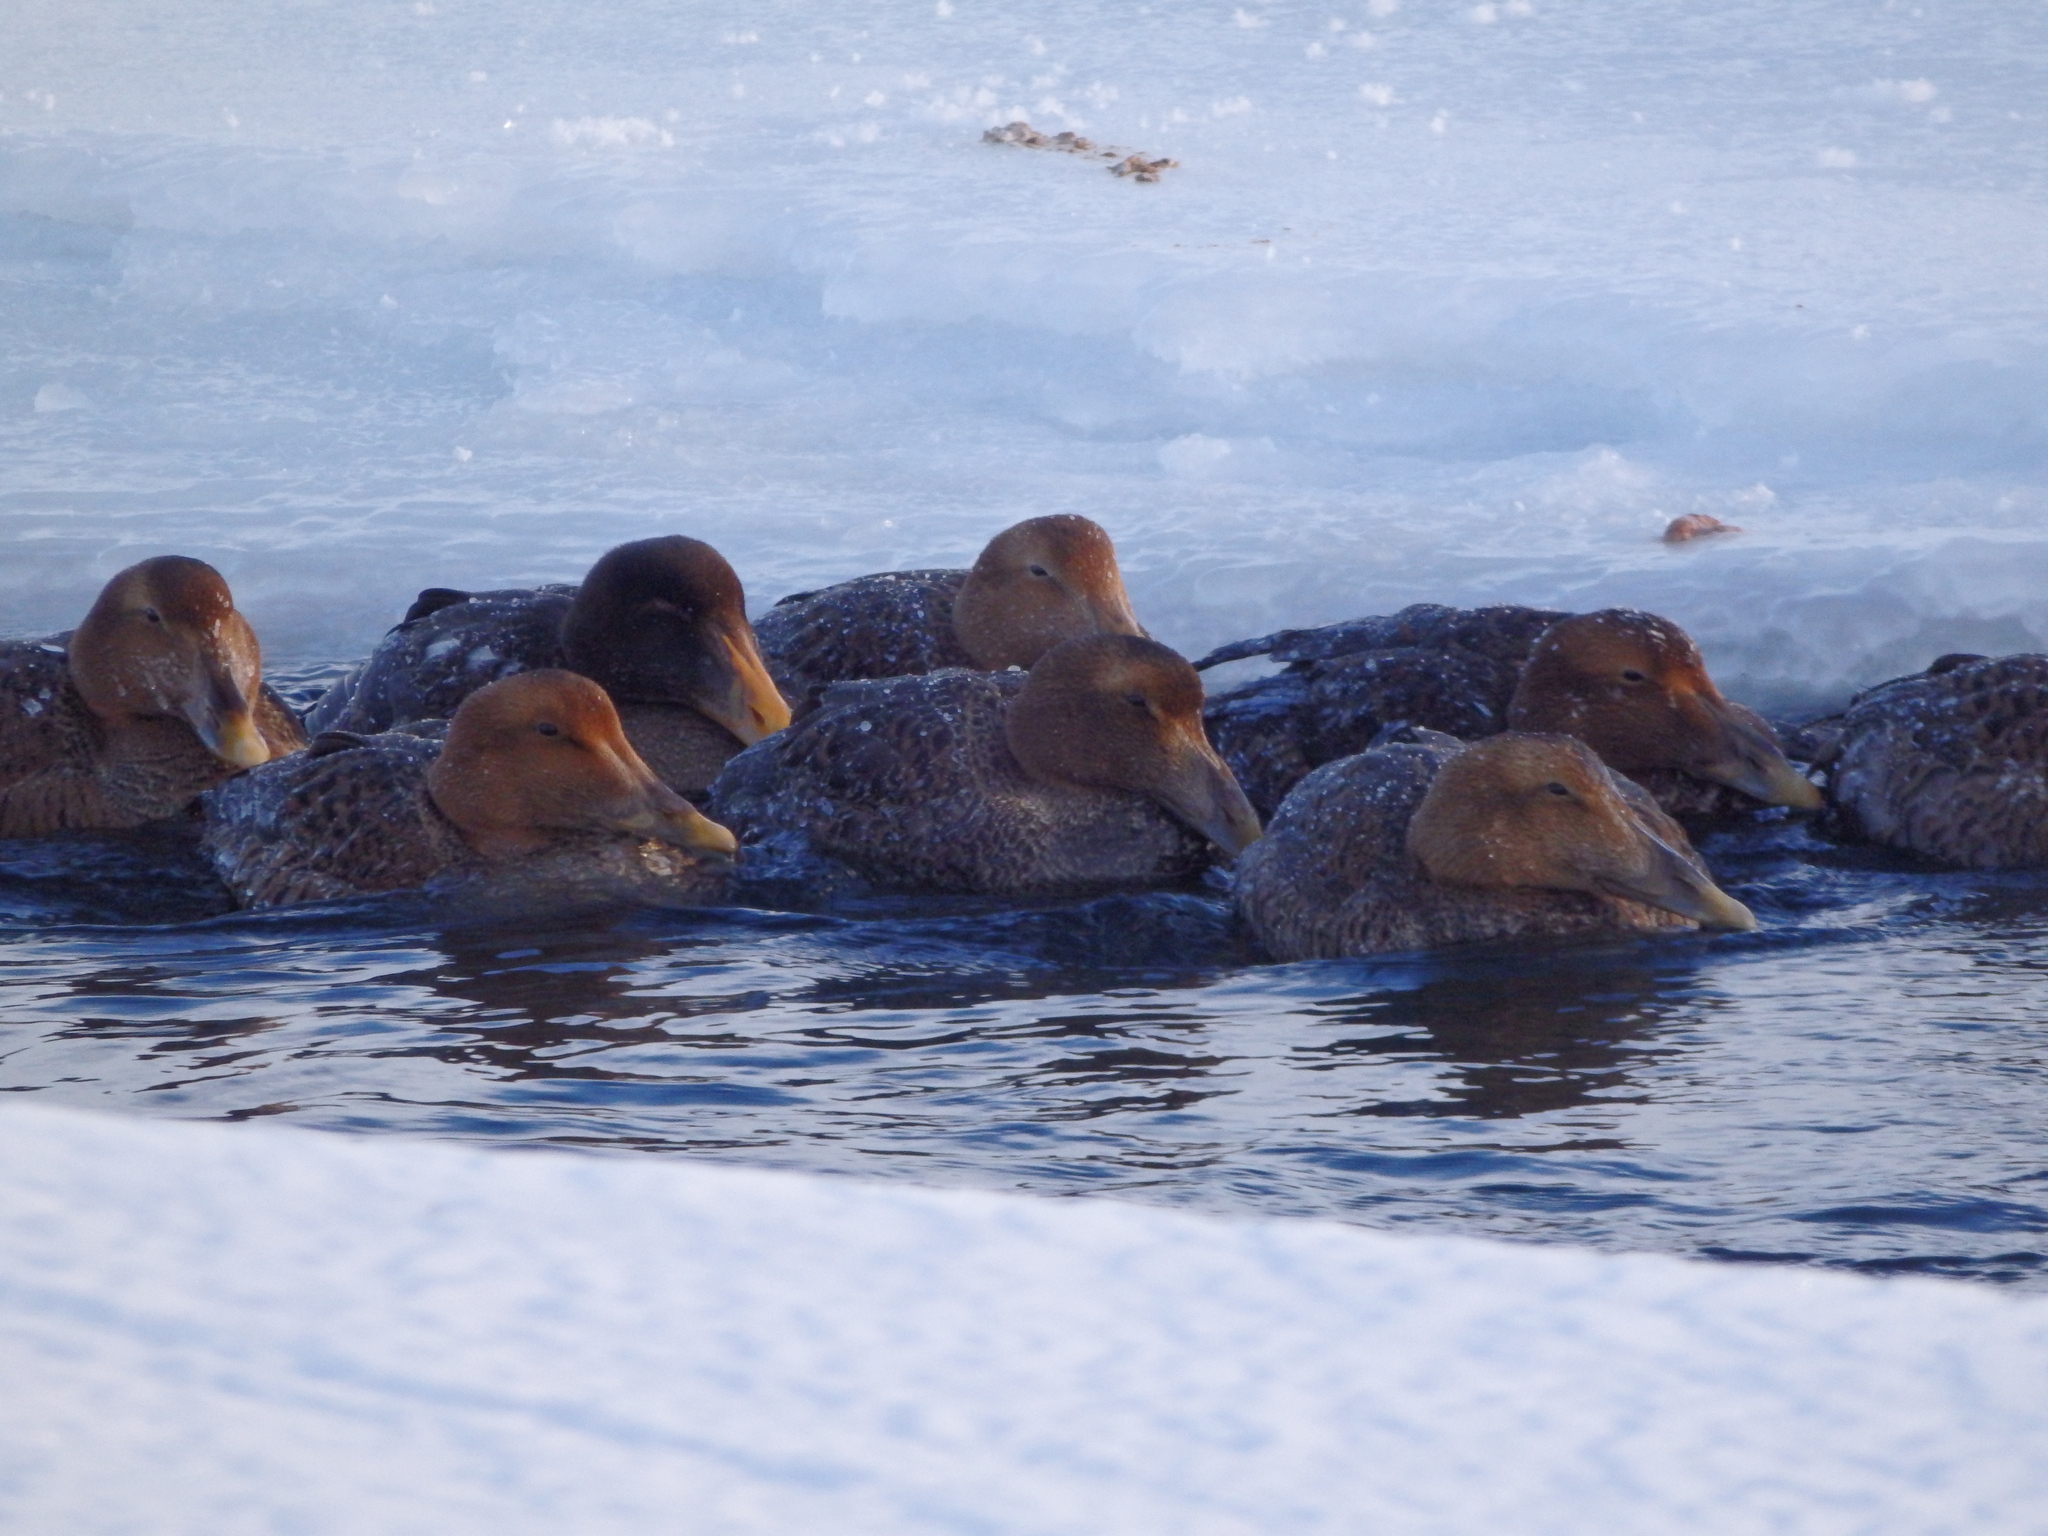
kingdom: Animalia
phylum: Chordata
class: Aves
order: Anseriformes
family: Anatidae
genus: Somateria
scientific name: Somateria mollissima
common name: Common eider
